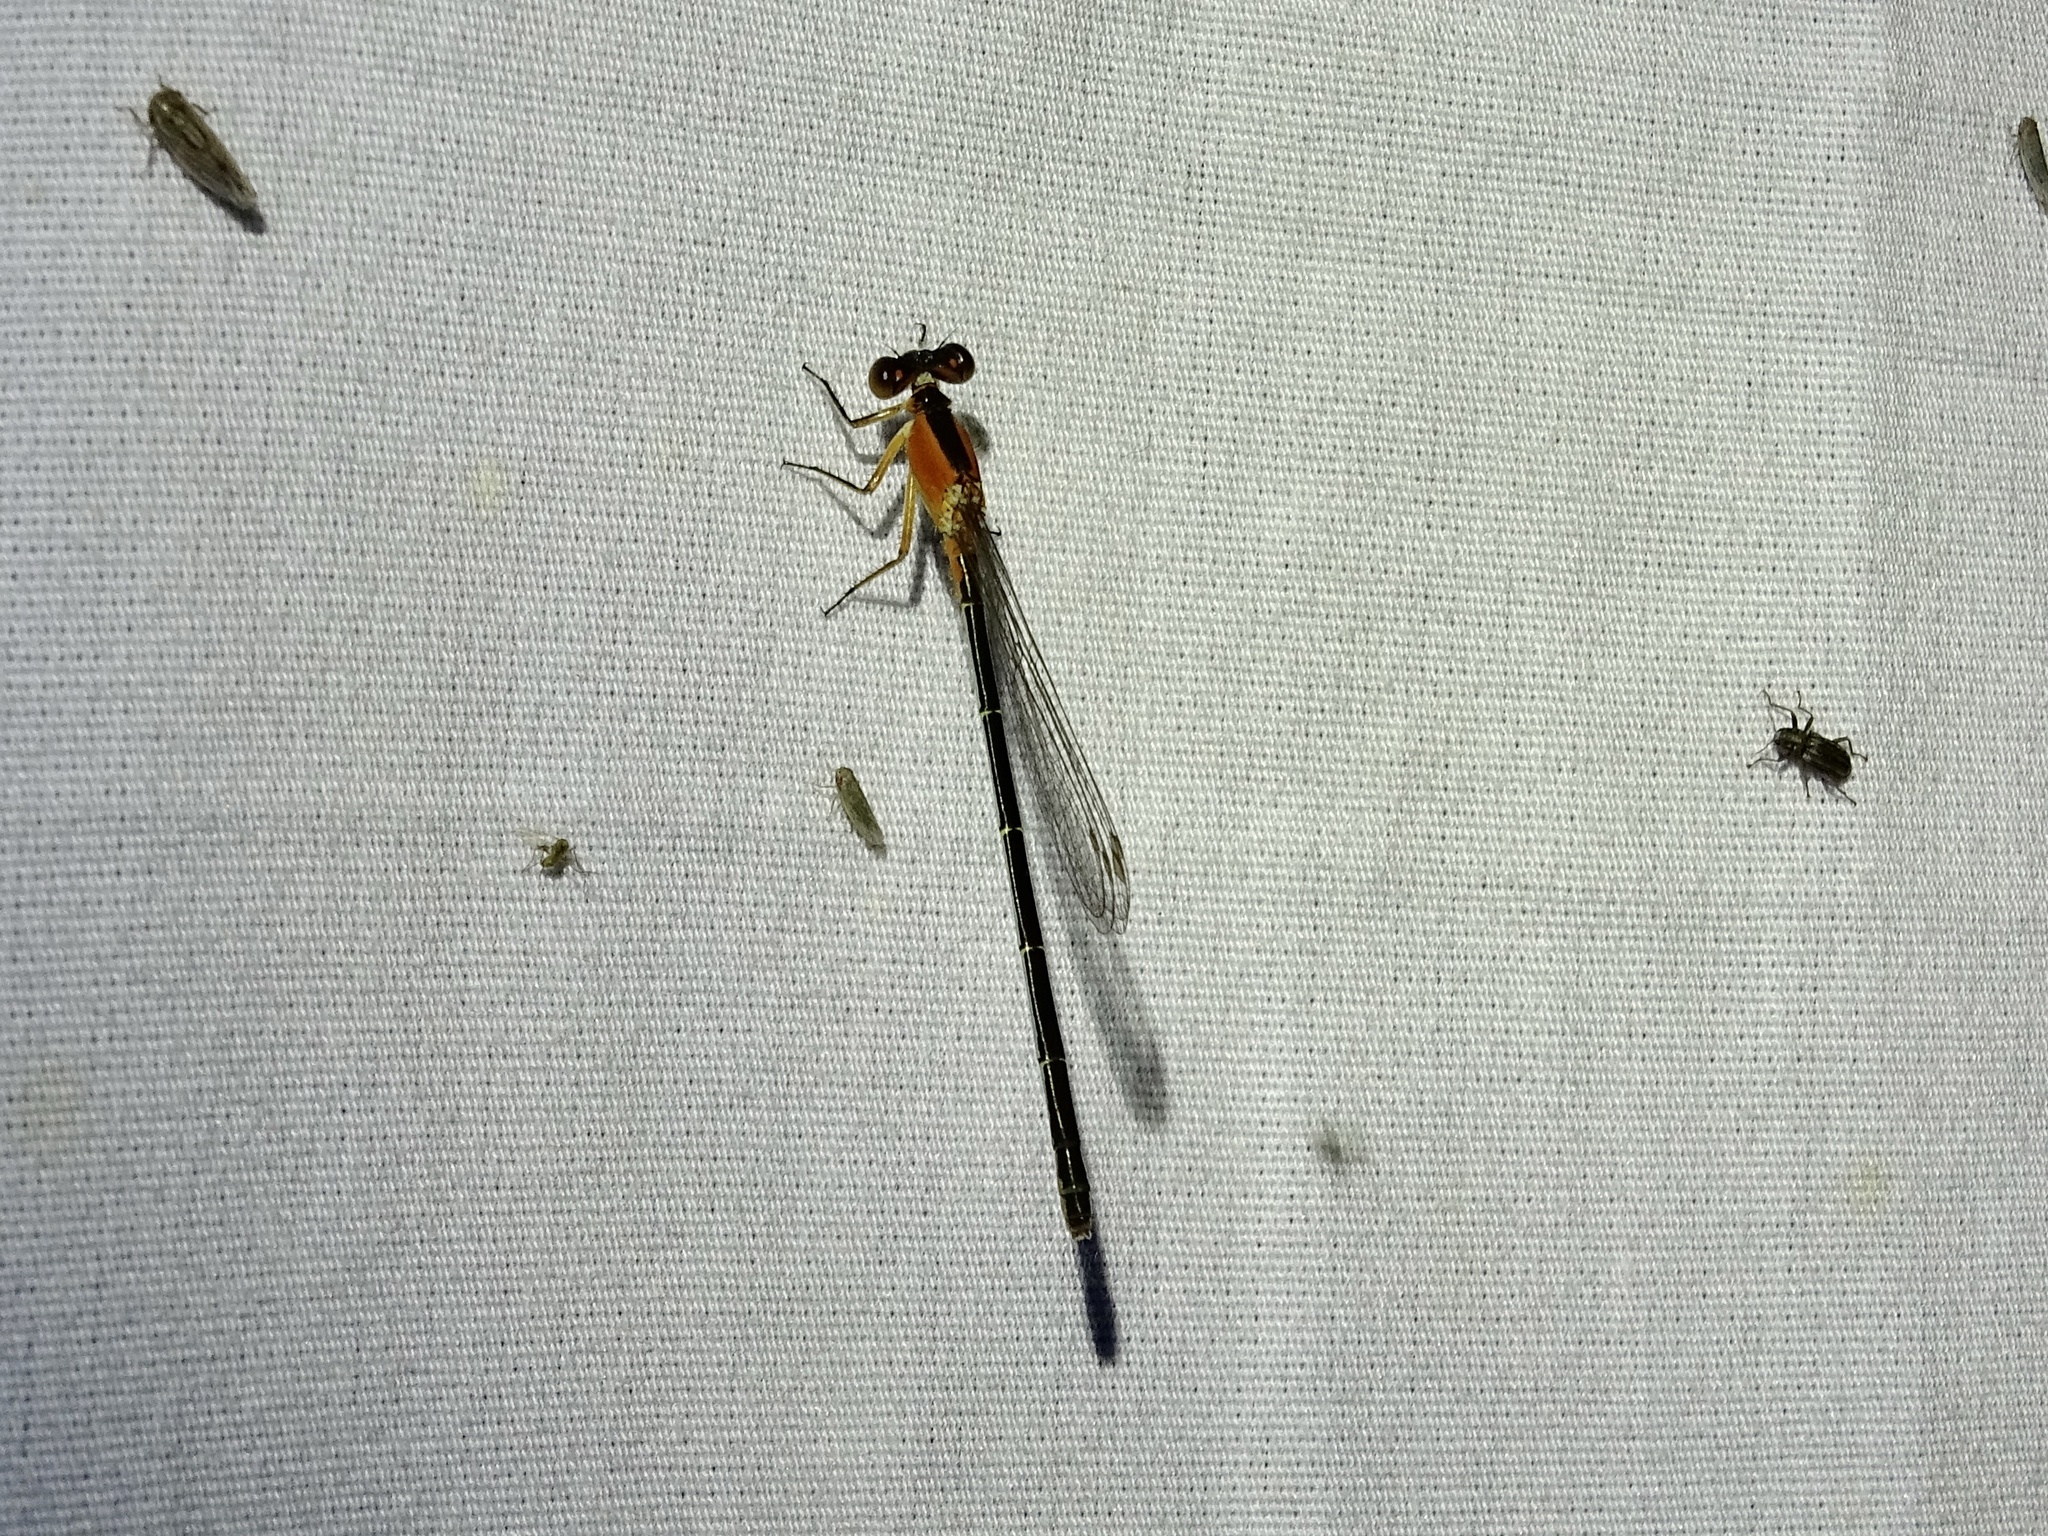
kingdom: Animalia
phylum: Arthropoda
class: Insecta
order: Odonata
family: Coenagrionidae
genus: Ischnura
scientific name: Ischnura ramburii
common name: Rambur's forktail
